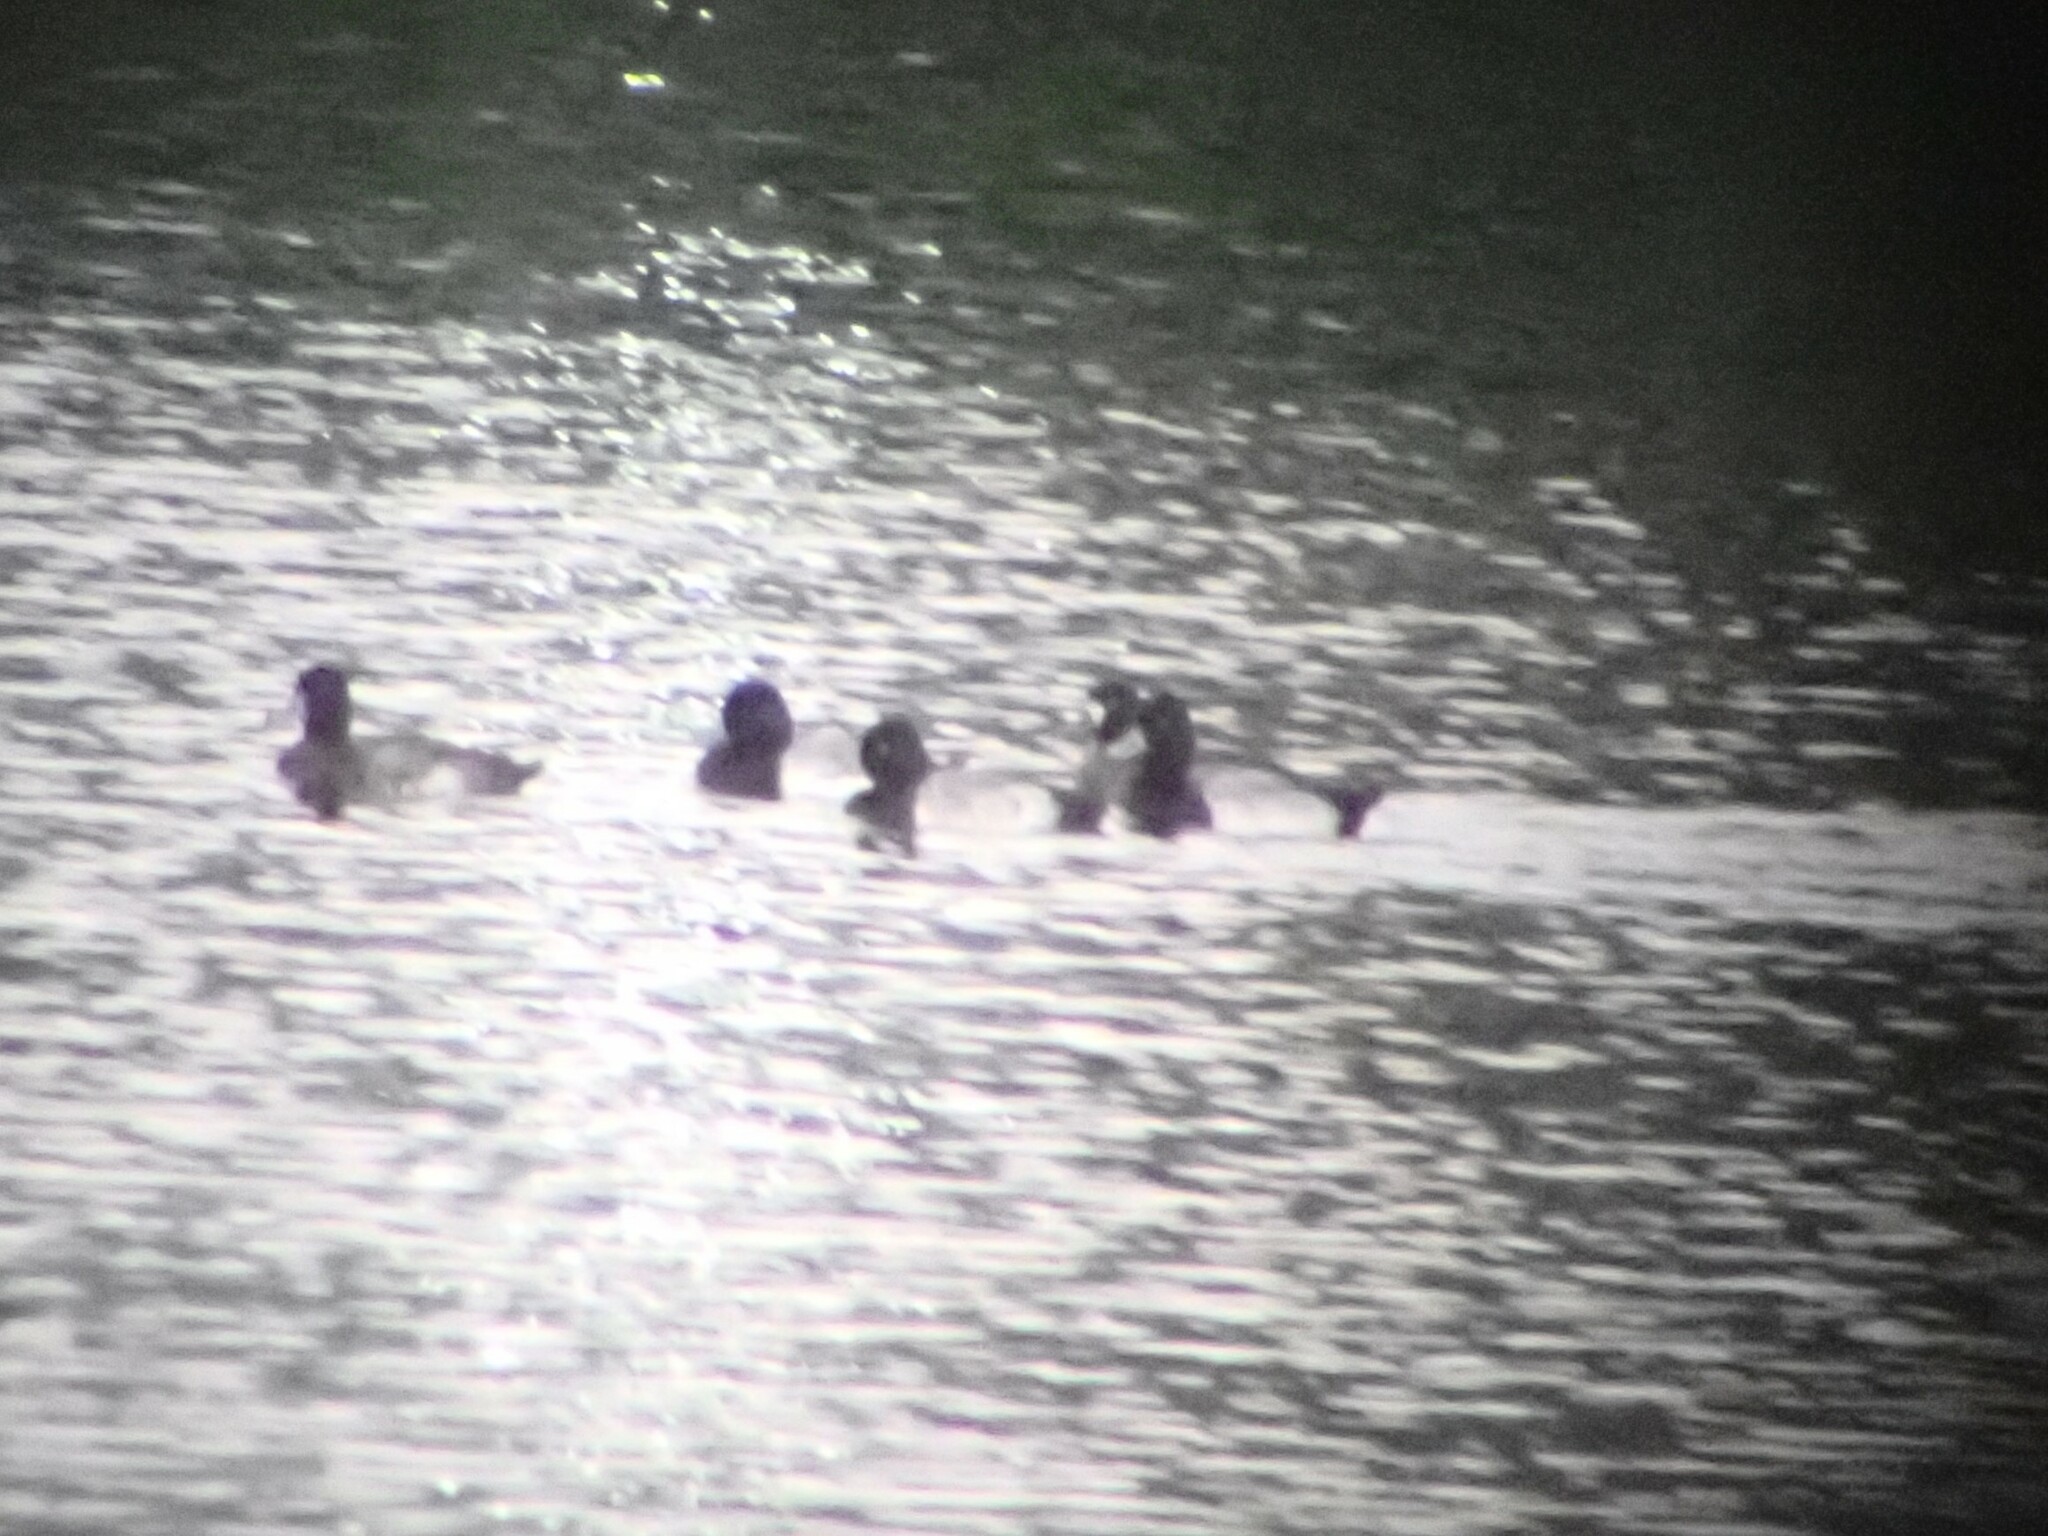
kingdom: Animalia
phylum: Chordata
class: Aves
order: Anseriformes
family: Anatidae
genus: Aythya
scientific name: Aythya affinis
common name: Lesser scaup
